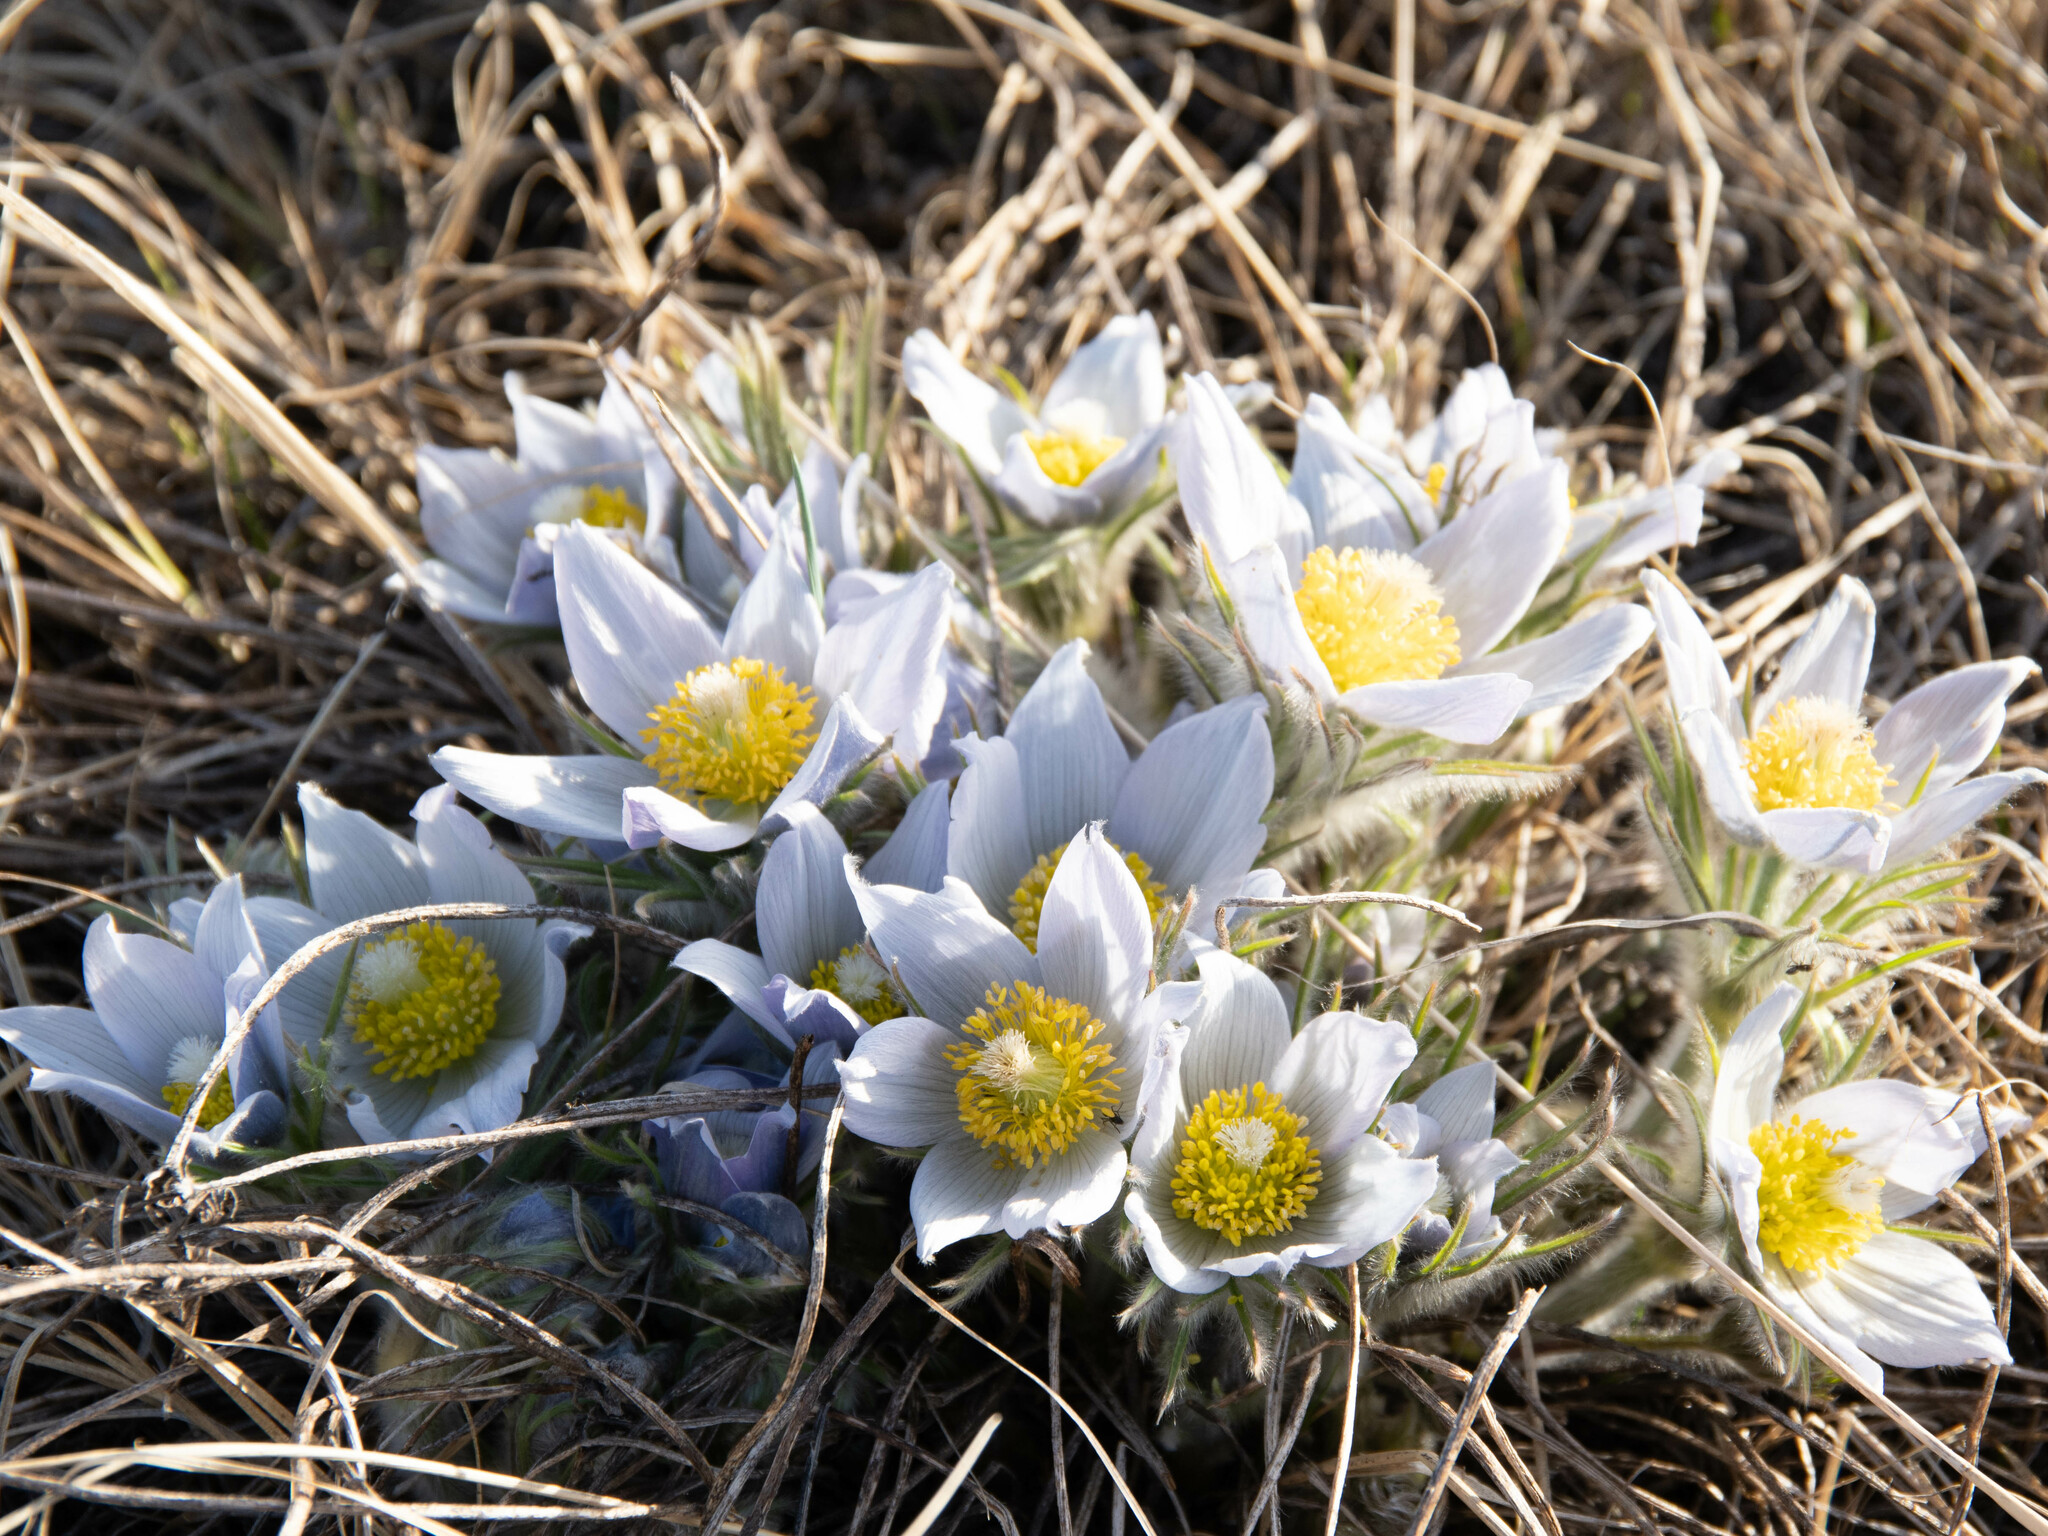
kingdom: Plantae
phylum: Tracheophyta
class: Magnoliopsida
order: Ranunculales
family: Ranunculaceae
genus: Pulsatilla
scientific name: Pulsatilla nuttalliana
